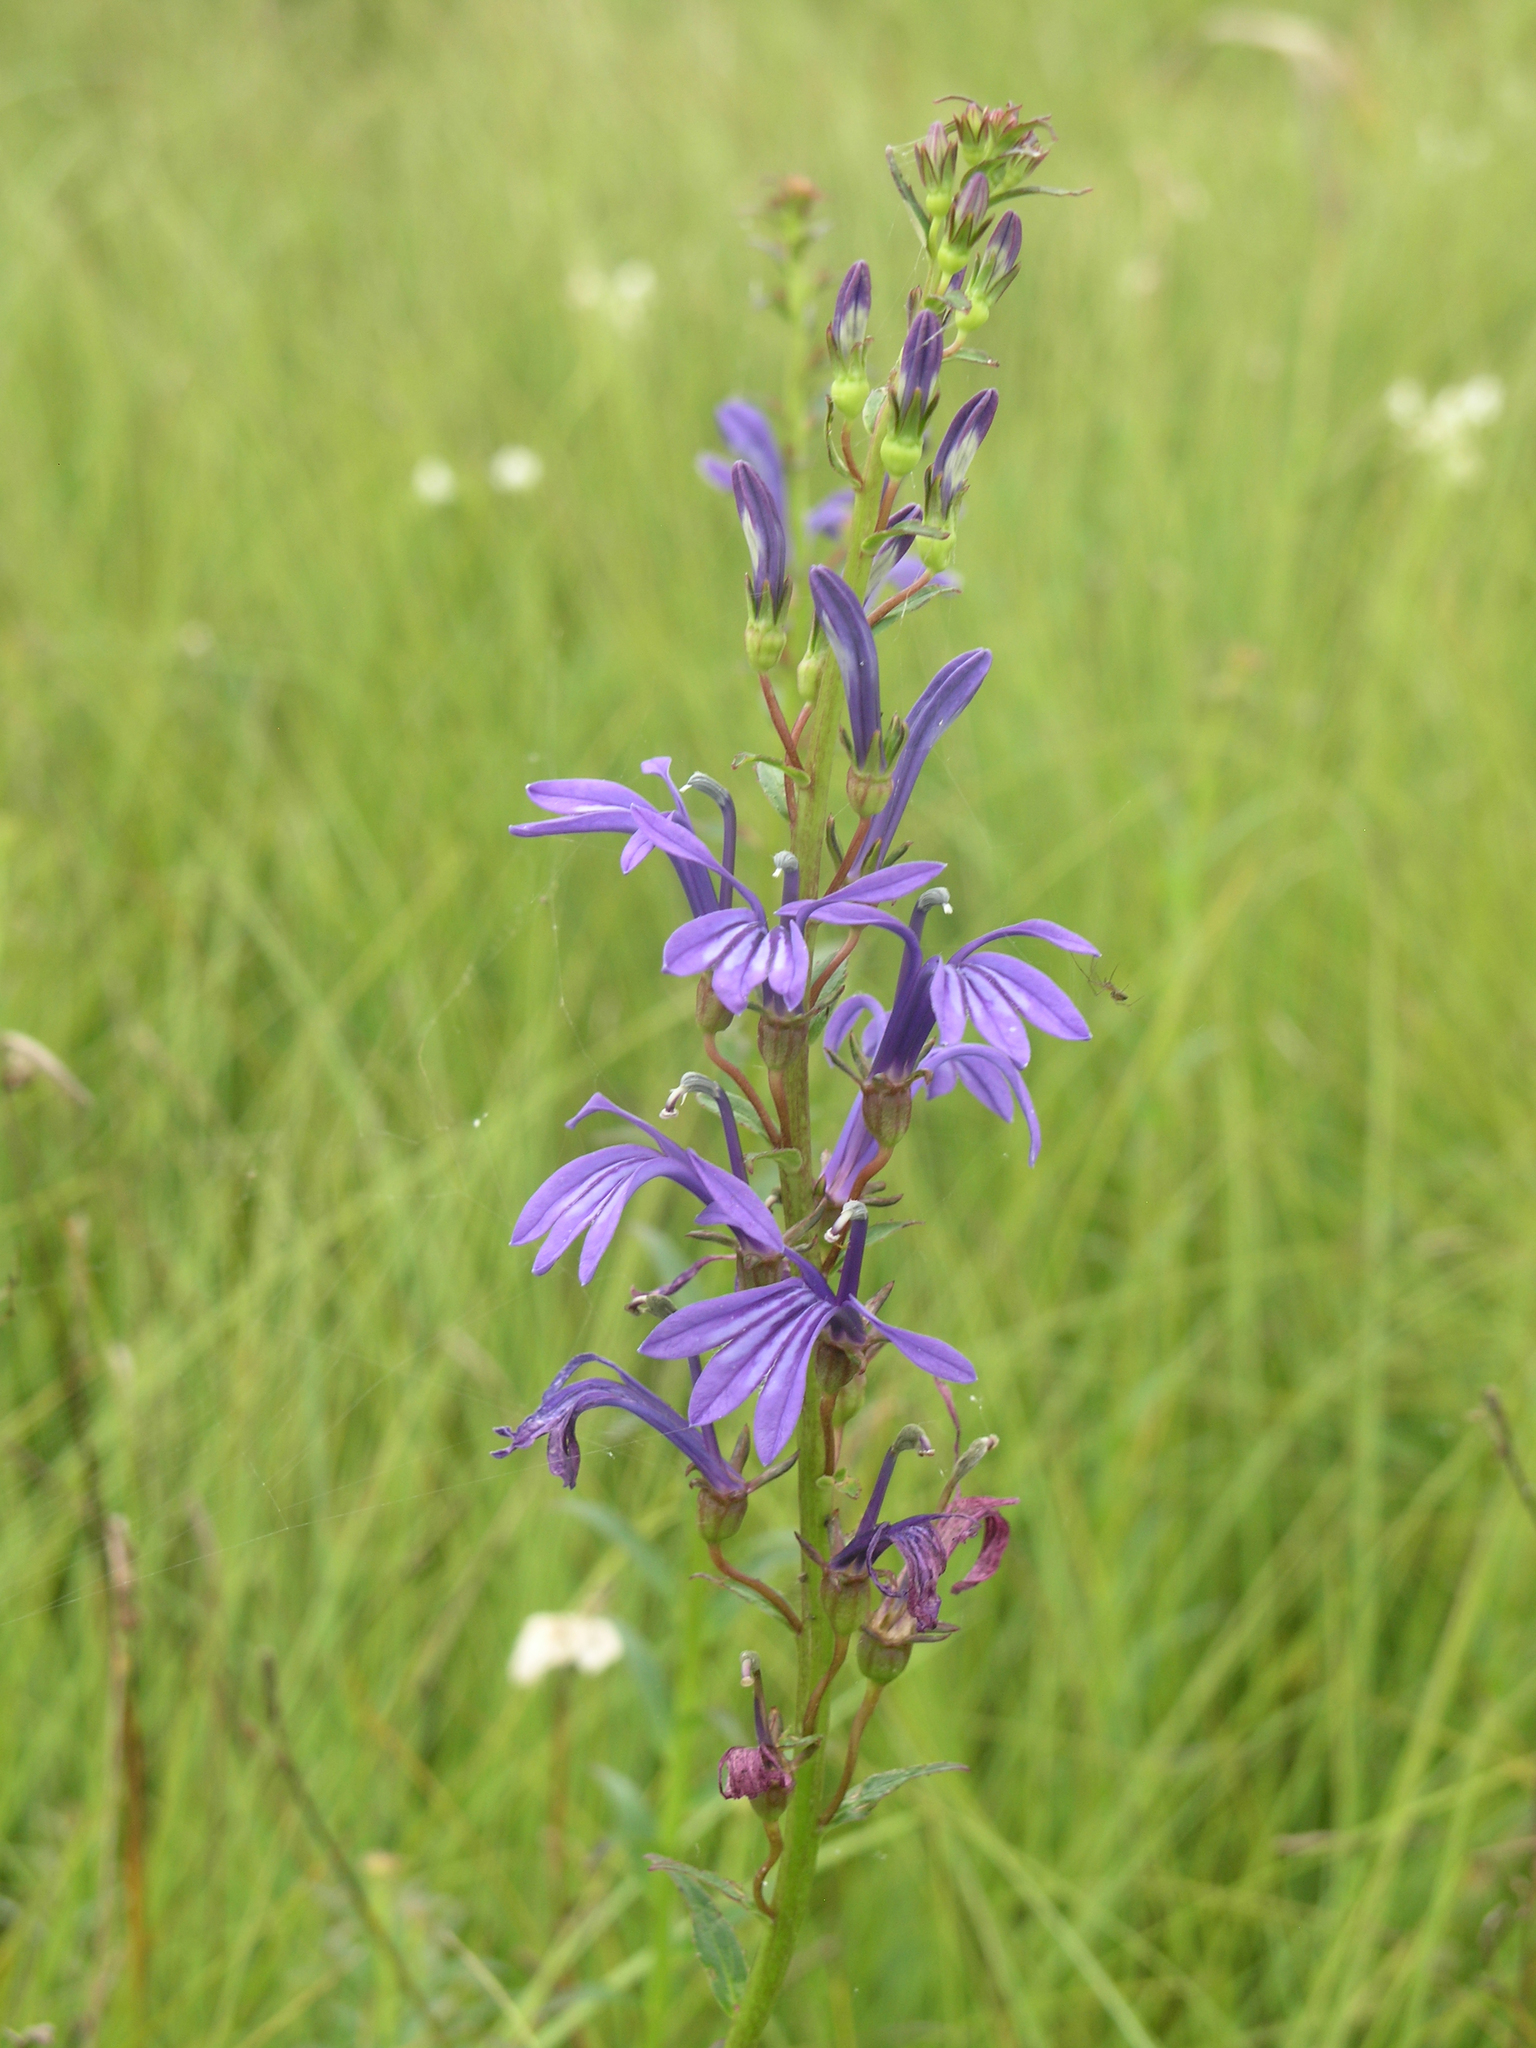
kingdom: Plantae
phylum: Tracheophyta
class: Magnoliopsida
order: Asterales
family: Campanulaceae
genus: Lobelia
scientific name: Lobelia sessilifolia
